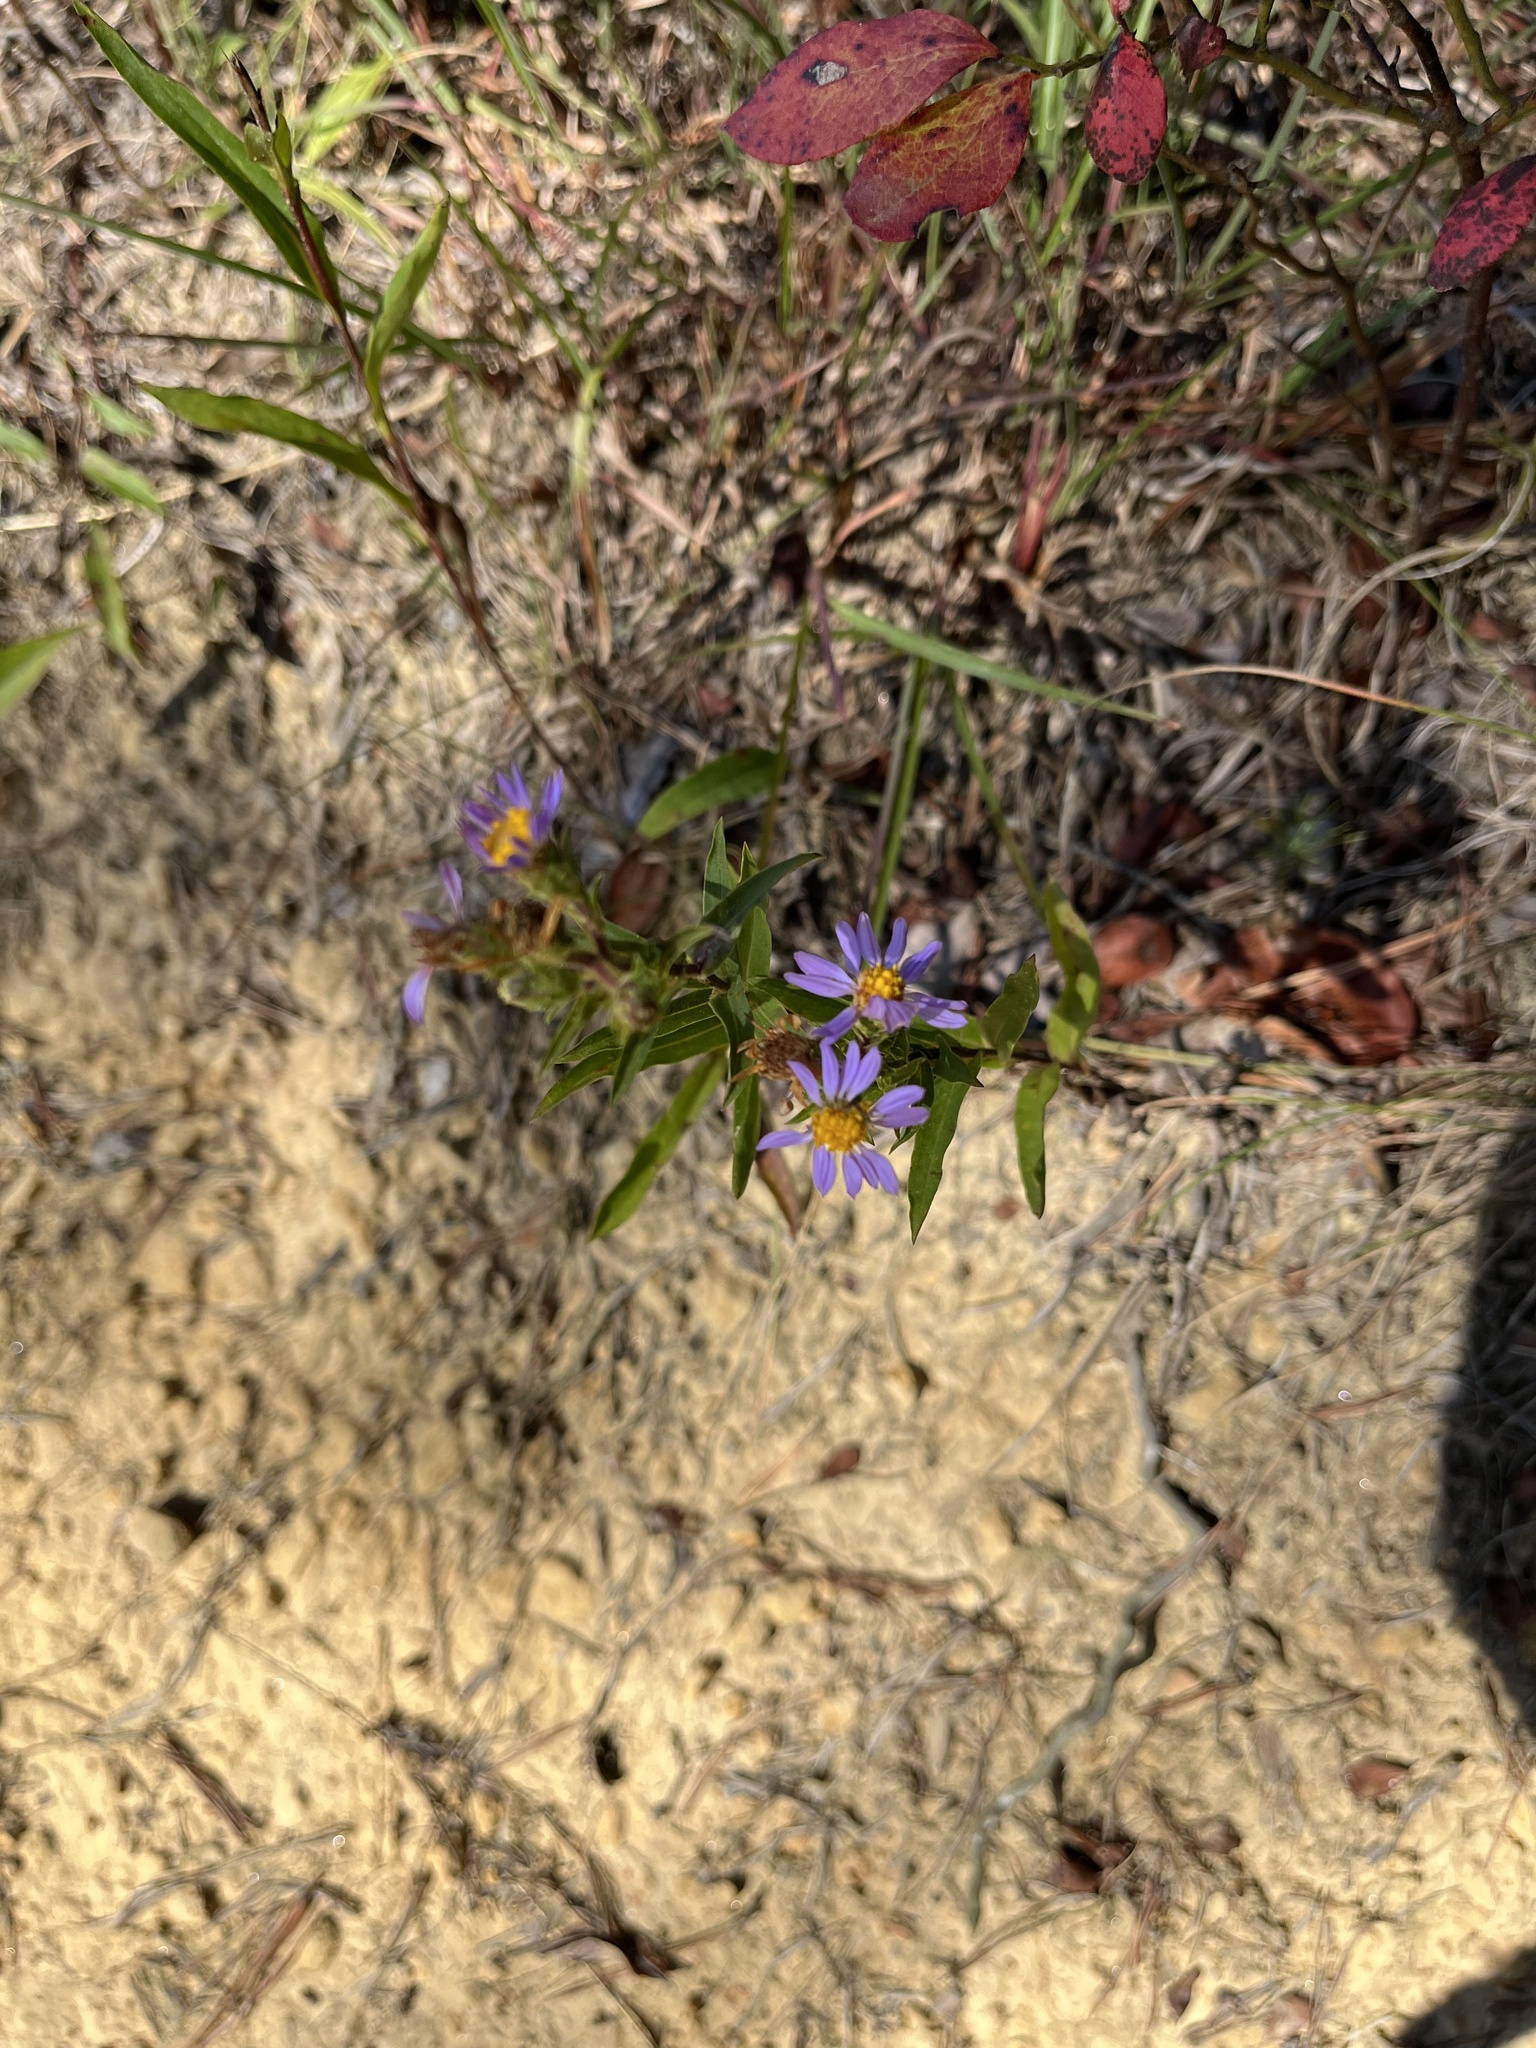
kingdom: Plantae
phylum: Tracheophyta
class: Magnoliopsida
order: Asterales
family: Asteraceae
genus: Eurybia
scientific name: Eurybia surculosa
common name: Creeping aster
